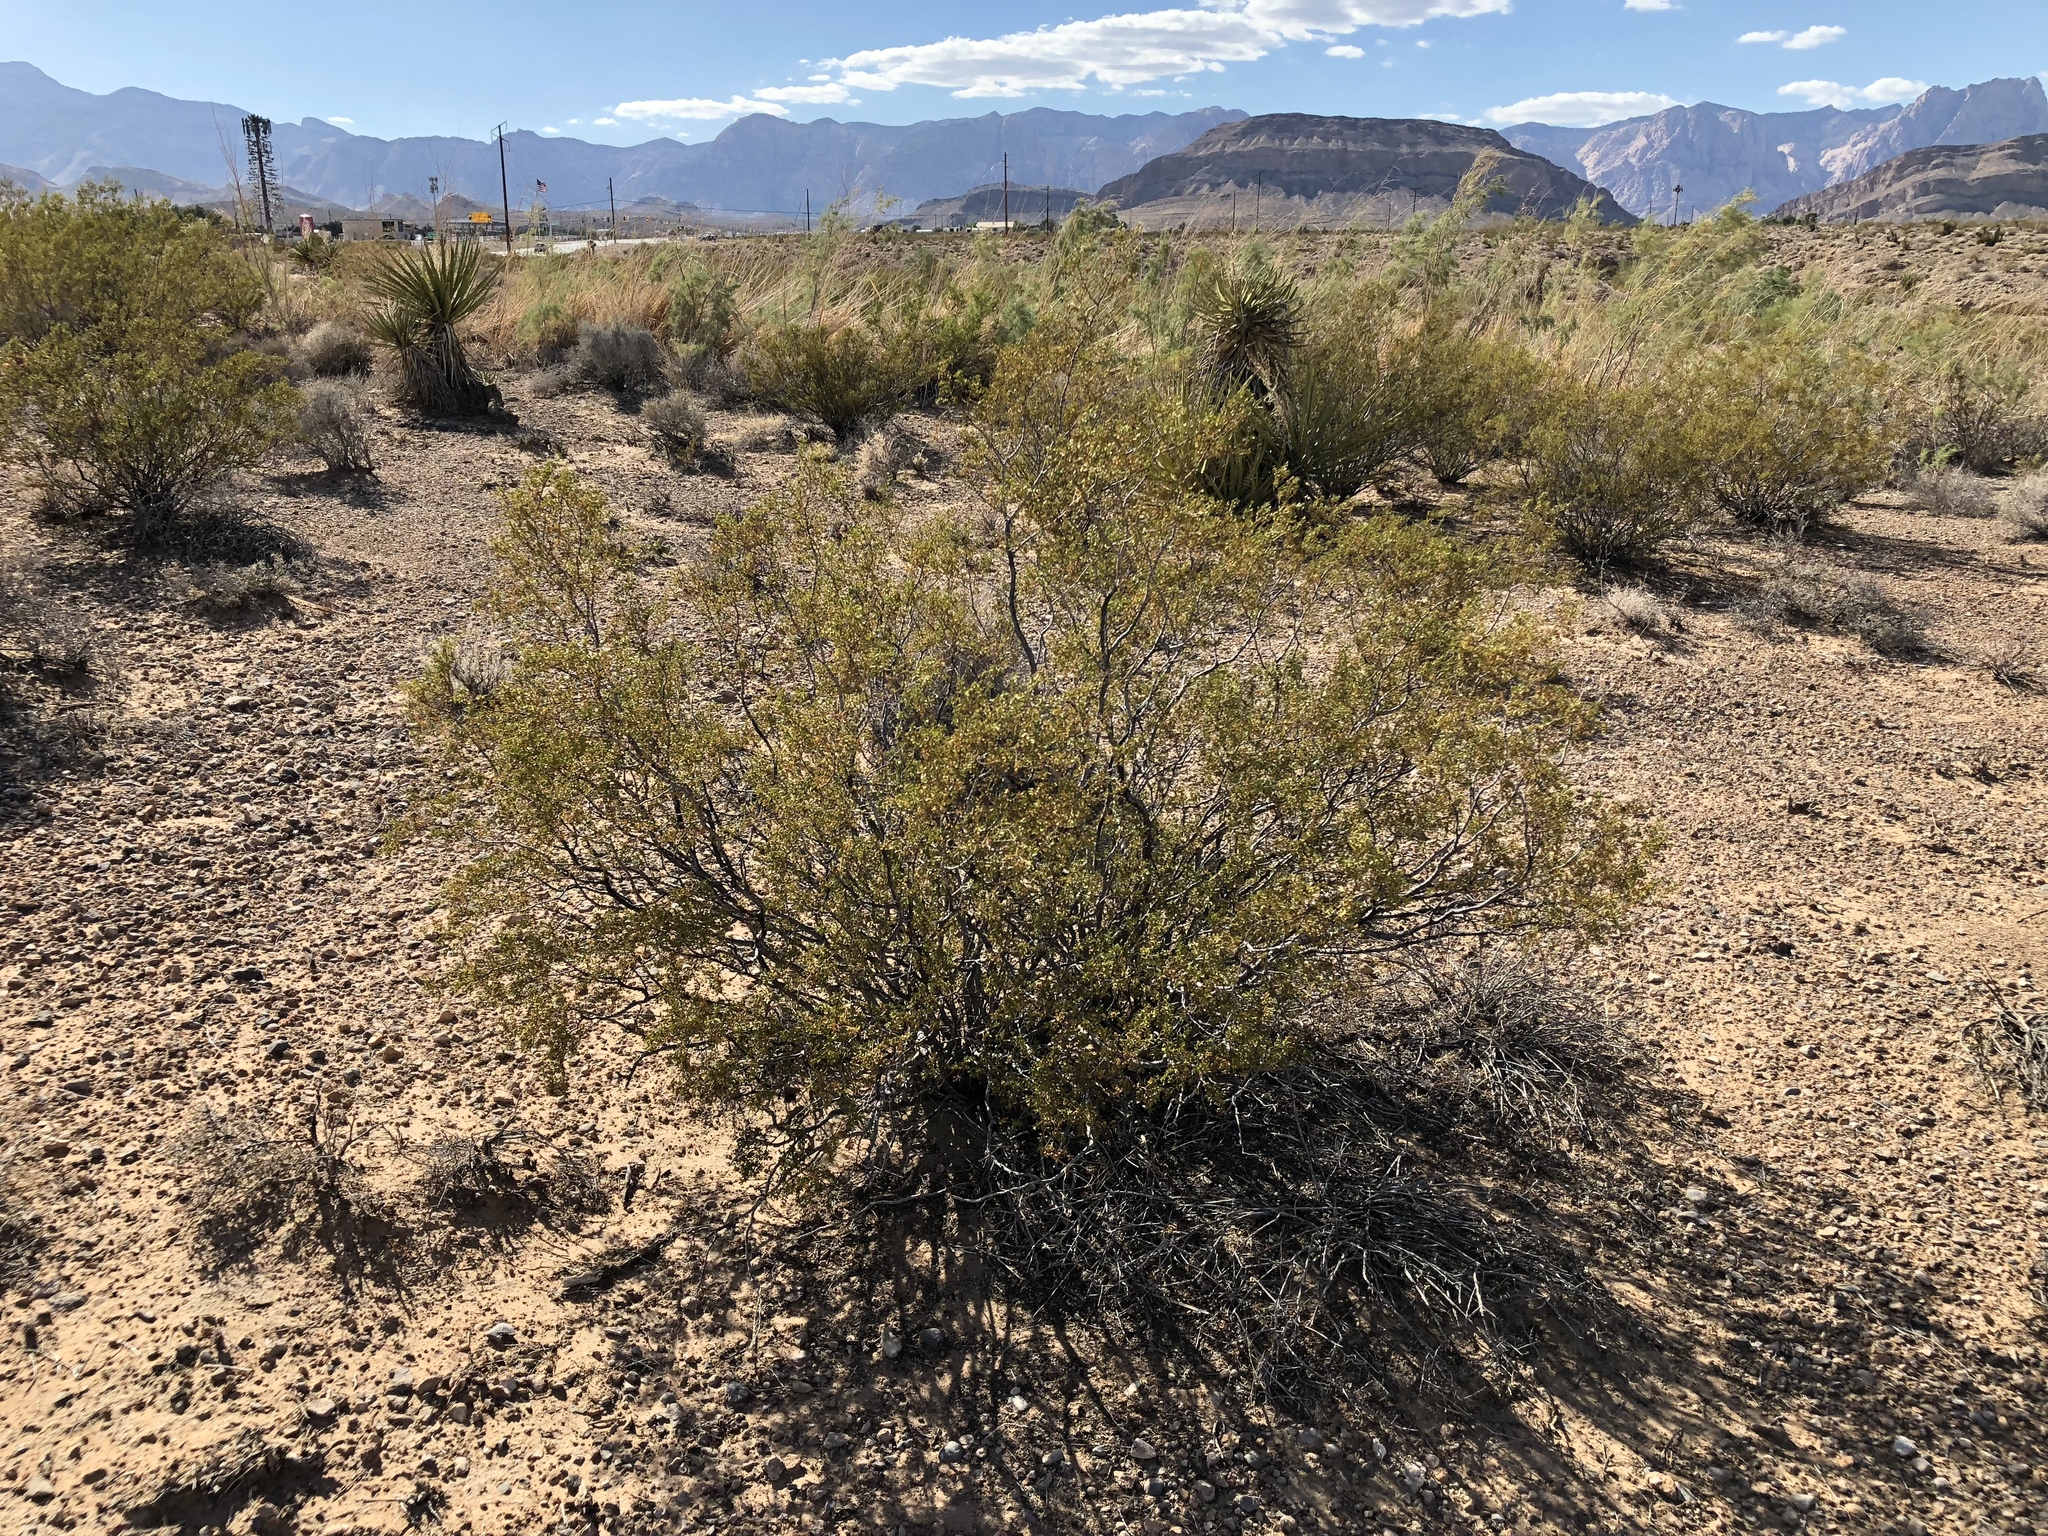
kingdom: Plantae
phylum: Tracheophyta
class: Magnoliopsida
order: Zygophyllales
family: Zygophyllaceae
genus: Larrea
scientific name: Larrea tridentata
